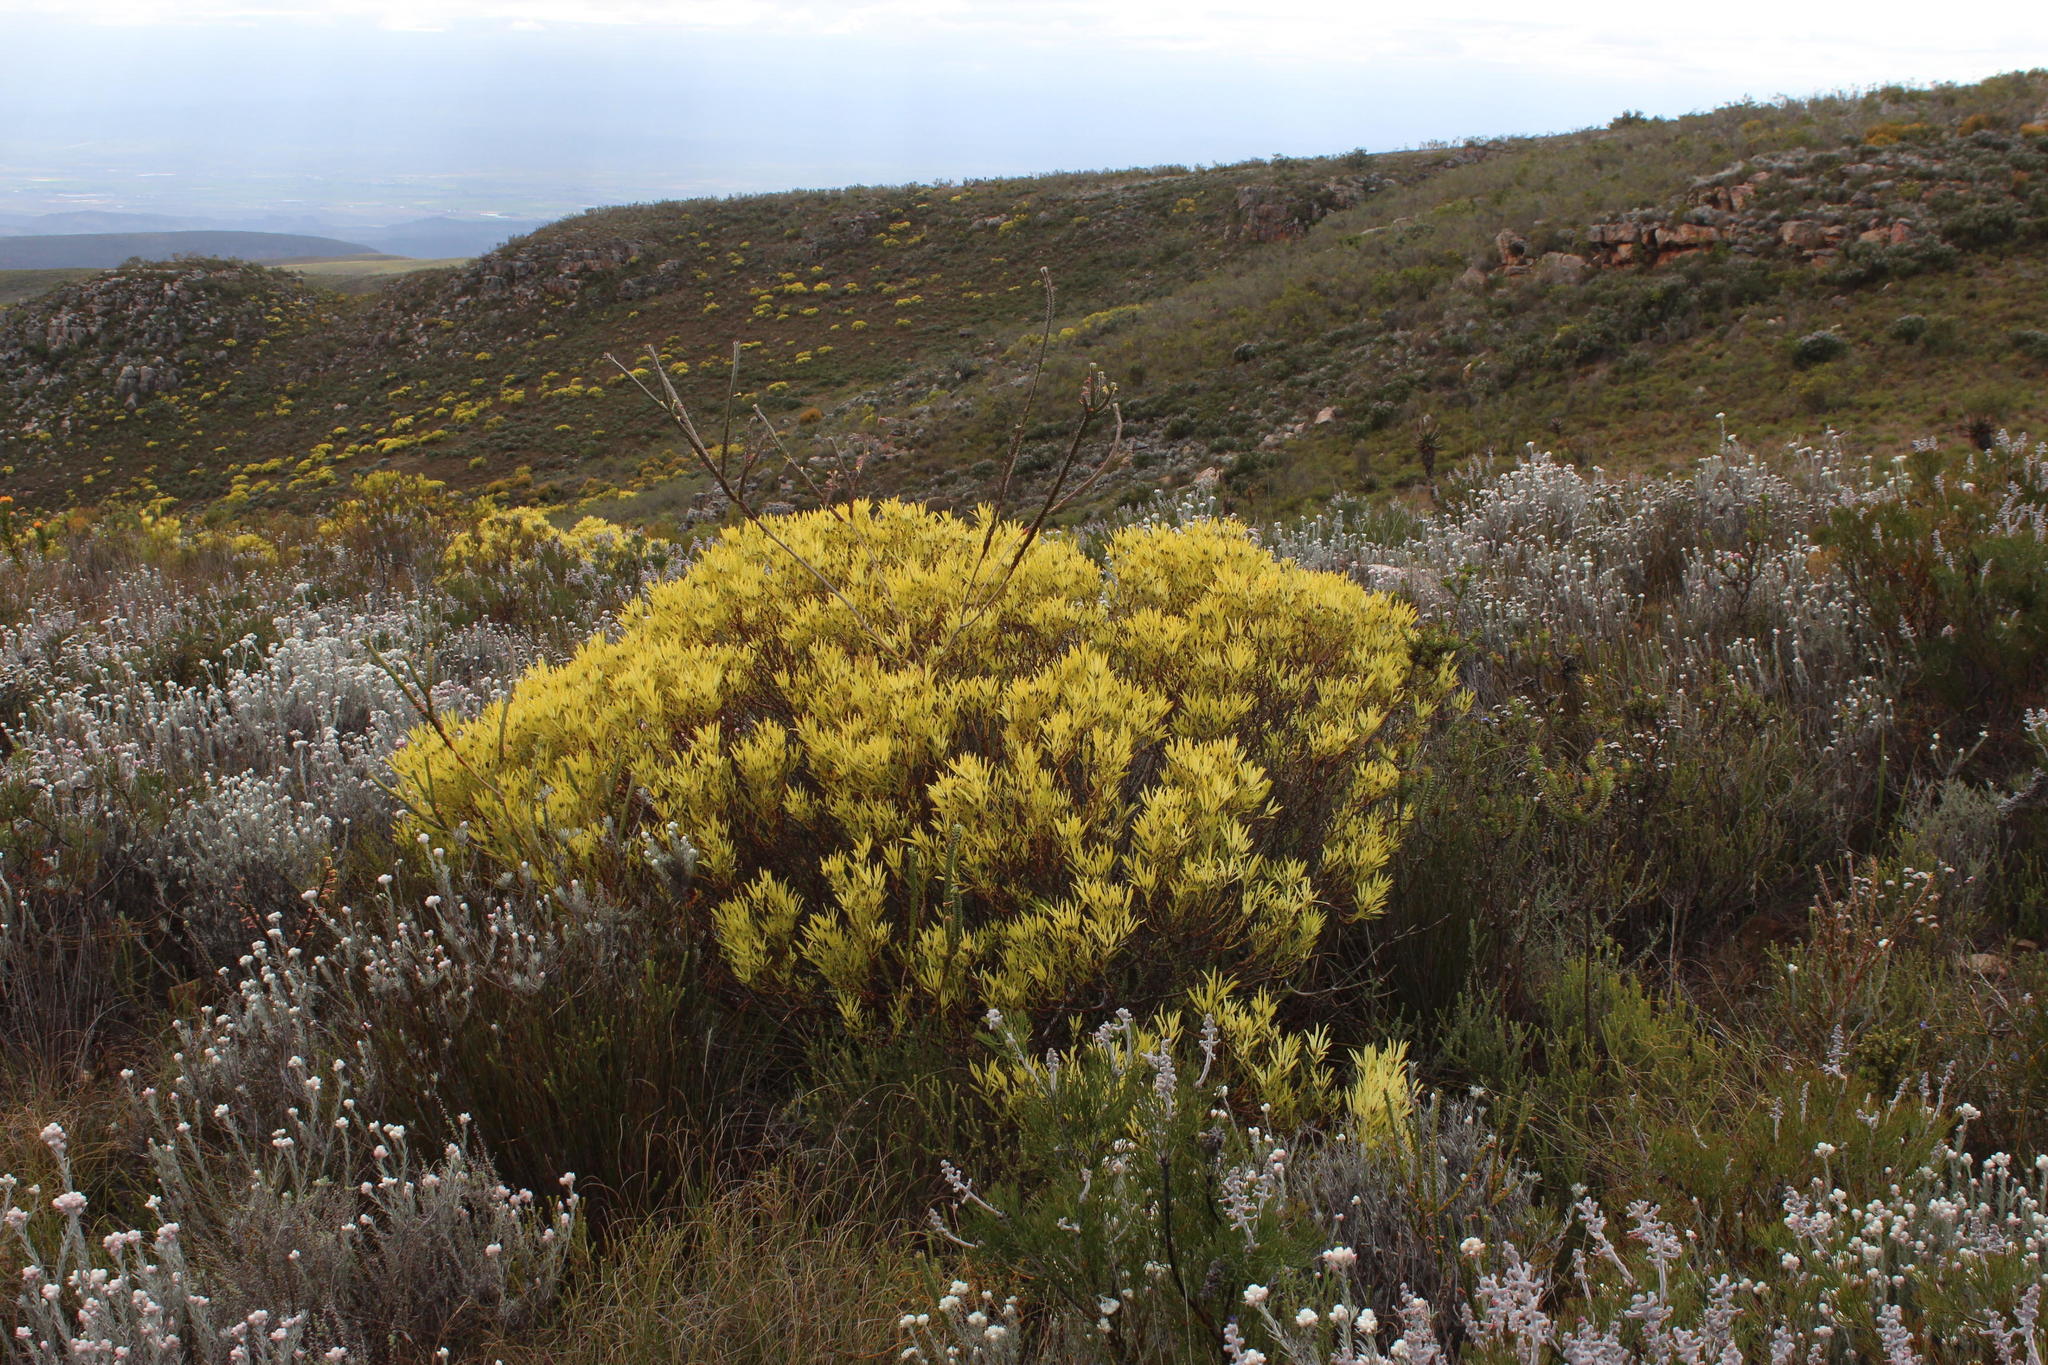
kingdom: Plantae
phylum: Tracheophyta
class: Magnoliopsida
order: Proteales
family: Proteaceae
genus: Leucadendron
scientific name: Leucadendron salignum
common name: Common sunshine conebush
